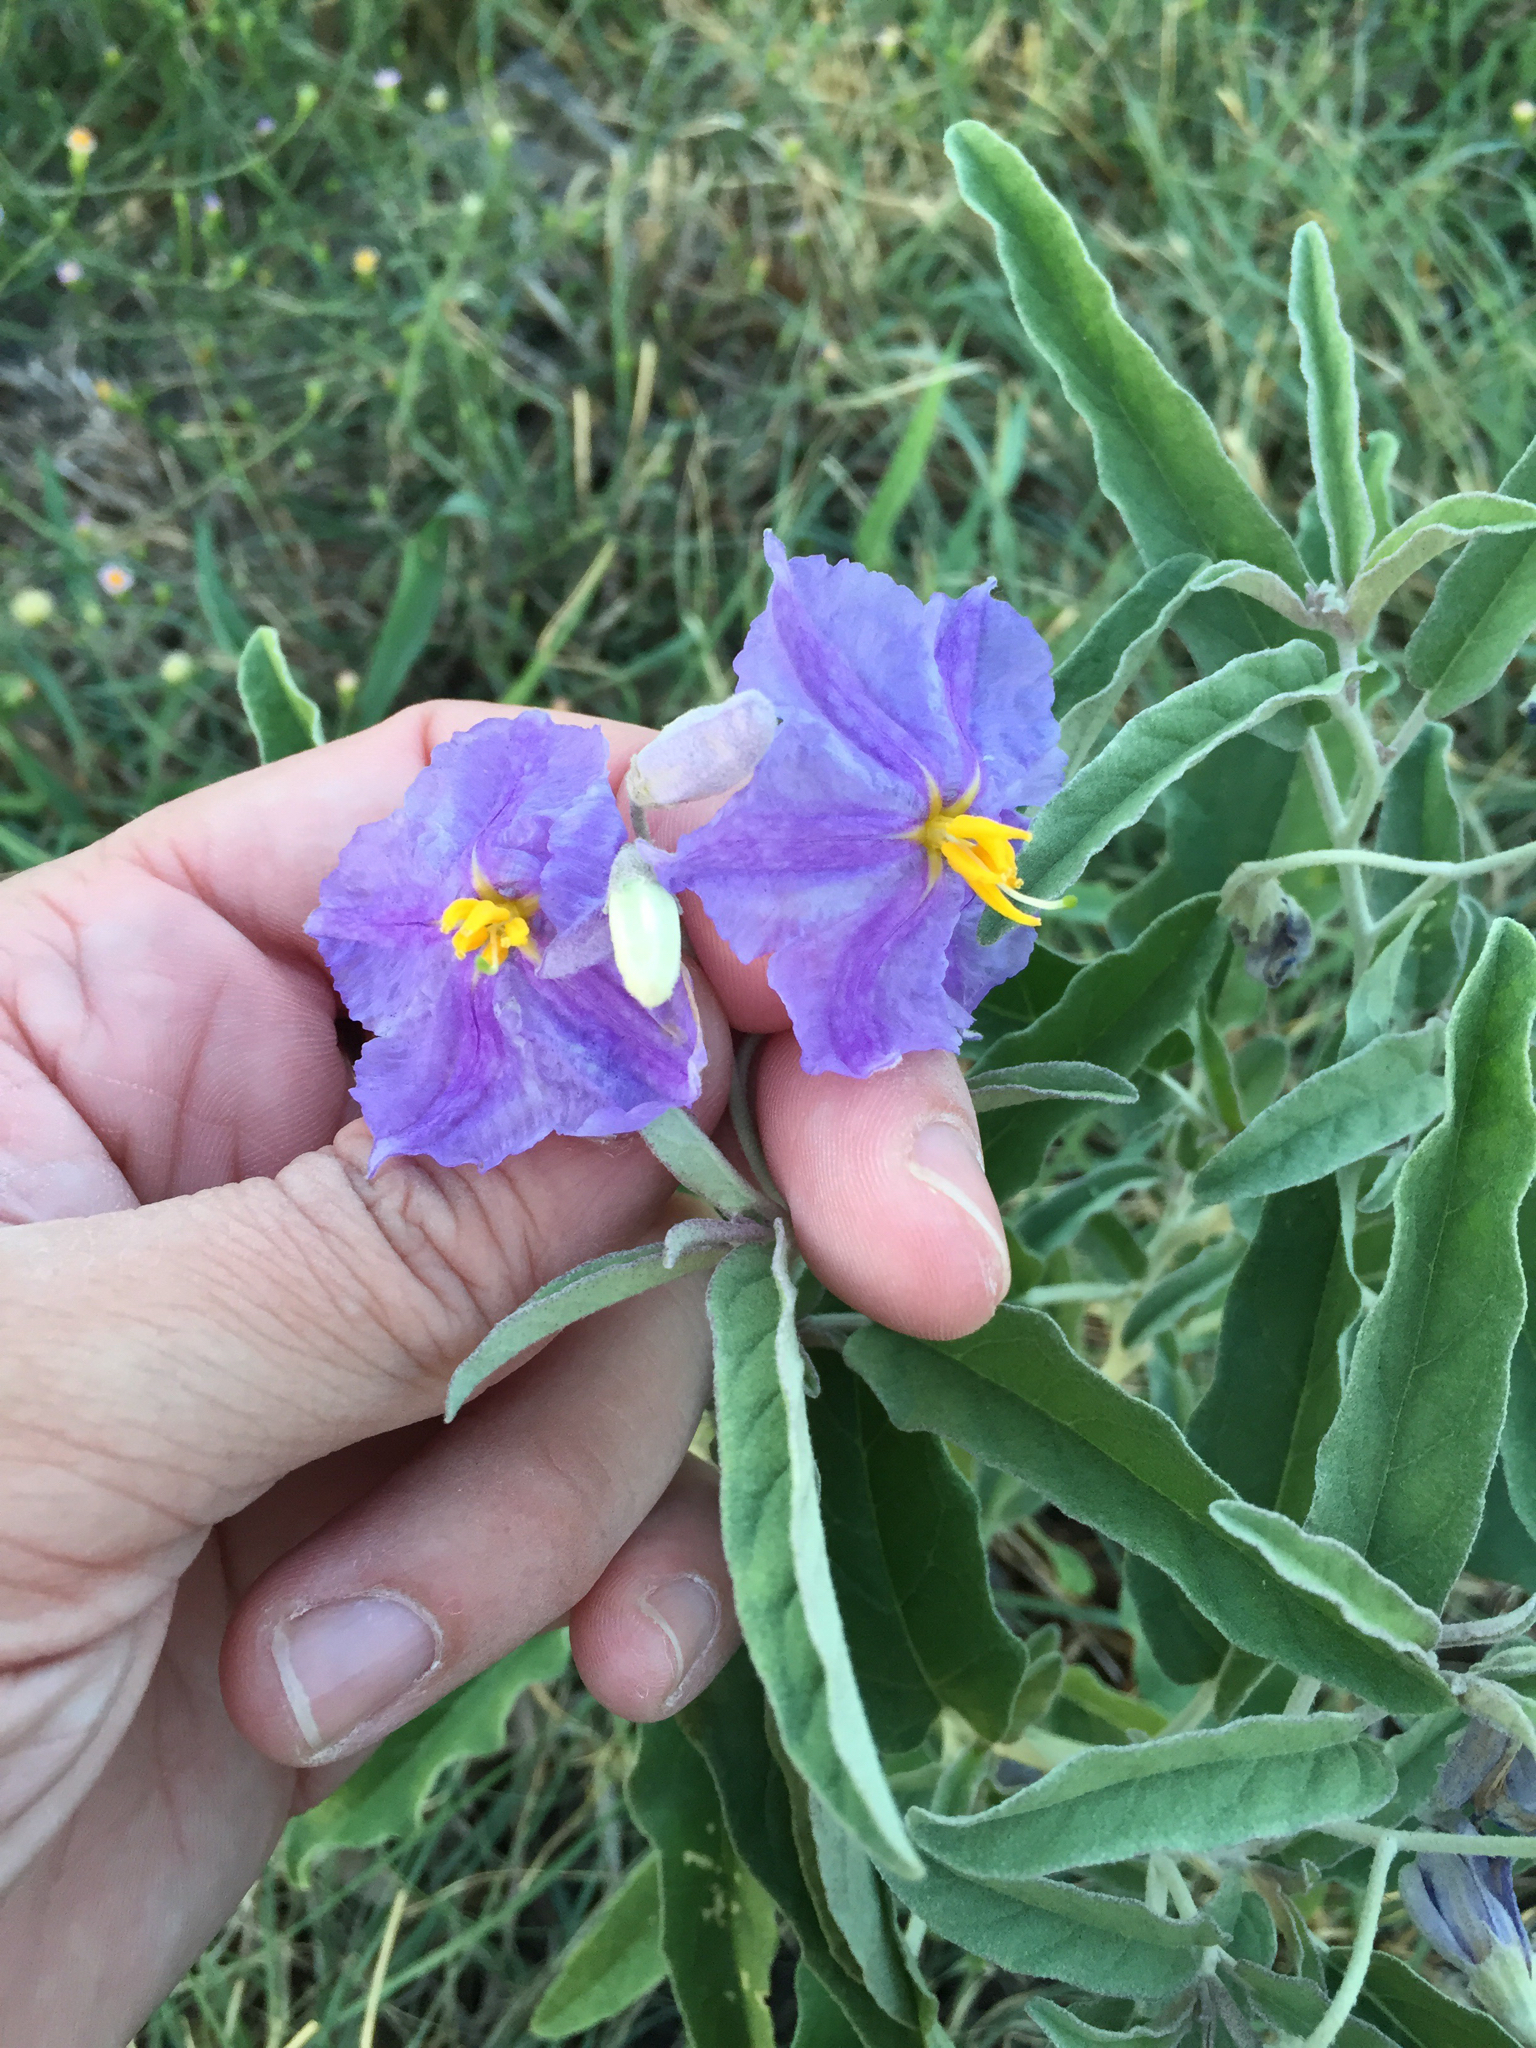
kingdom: Plantae
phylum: Tracheophyta
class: Magnoliopsida
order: Solanales
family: Solanaceae
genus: Solanum
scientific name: Solanum elaeagnifolium
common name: Silverleaf nightshade
